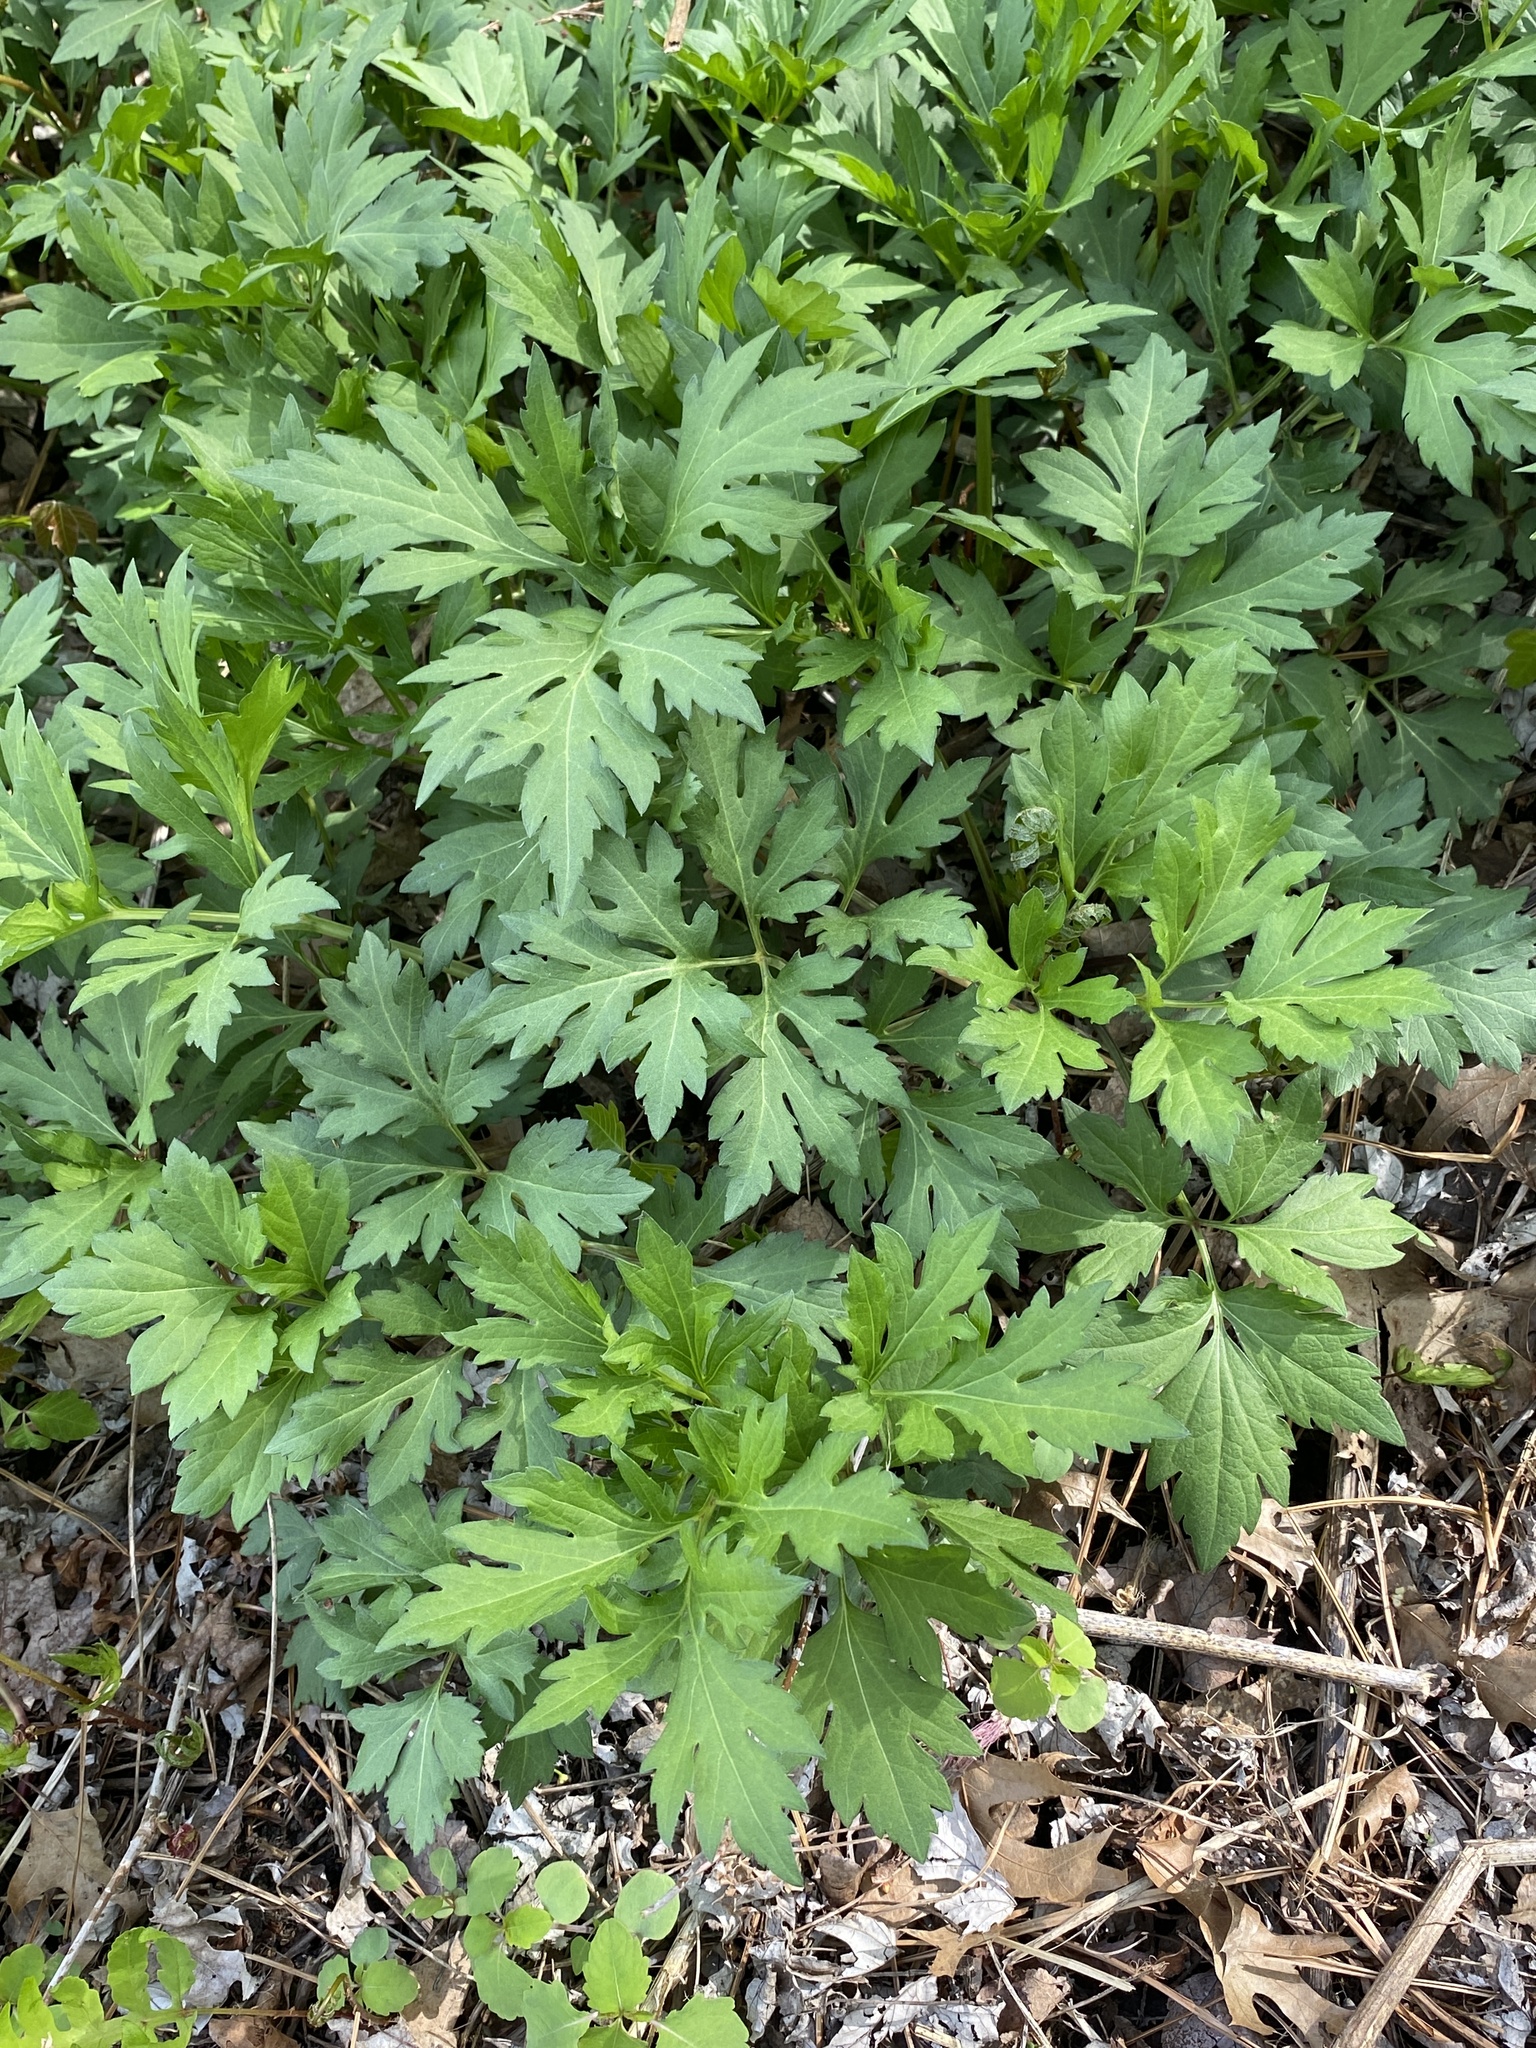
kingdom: Plantae
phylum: Tracheophyta
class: Magnoliopsida
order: Asterales
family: Asteraceae
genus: Rudbeckia
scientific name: Rudbeckia laciniata
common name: Coneflower
